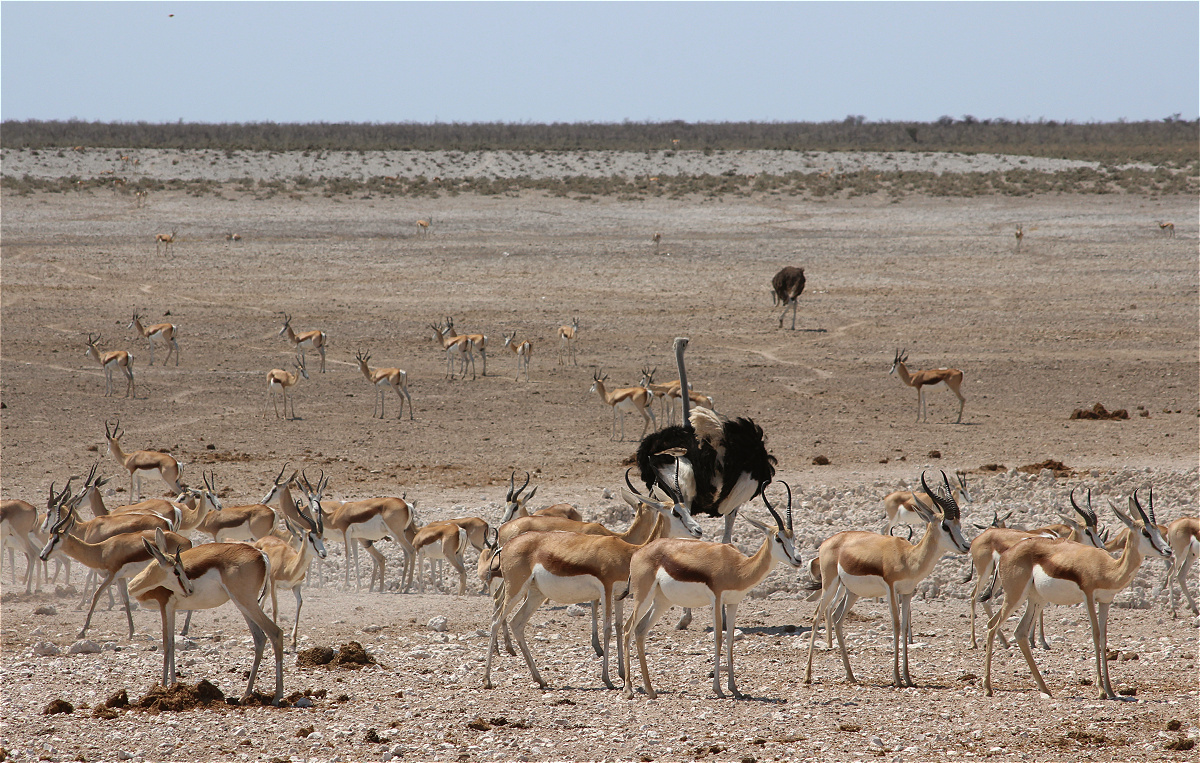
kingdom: Animalia
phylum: Chordata
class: Mammalia
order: Artiodactyla
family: Bovidae
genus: Antidorcas
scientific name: Antidorcas marsupialis
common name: Springbok
